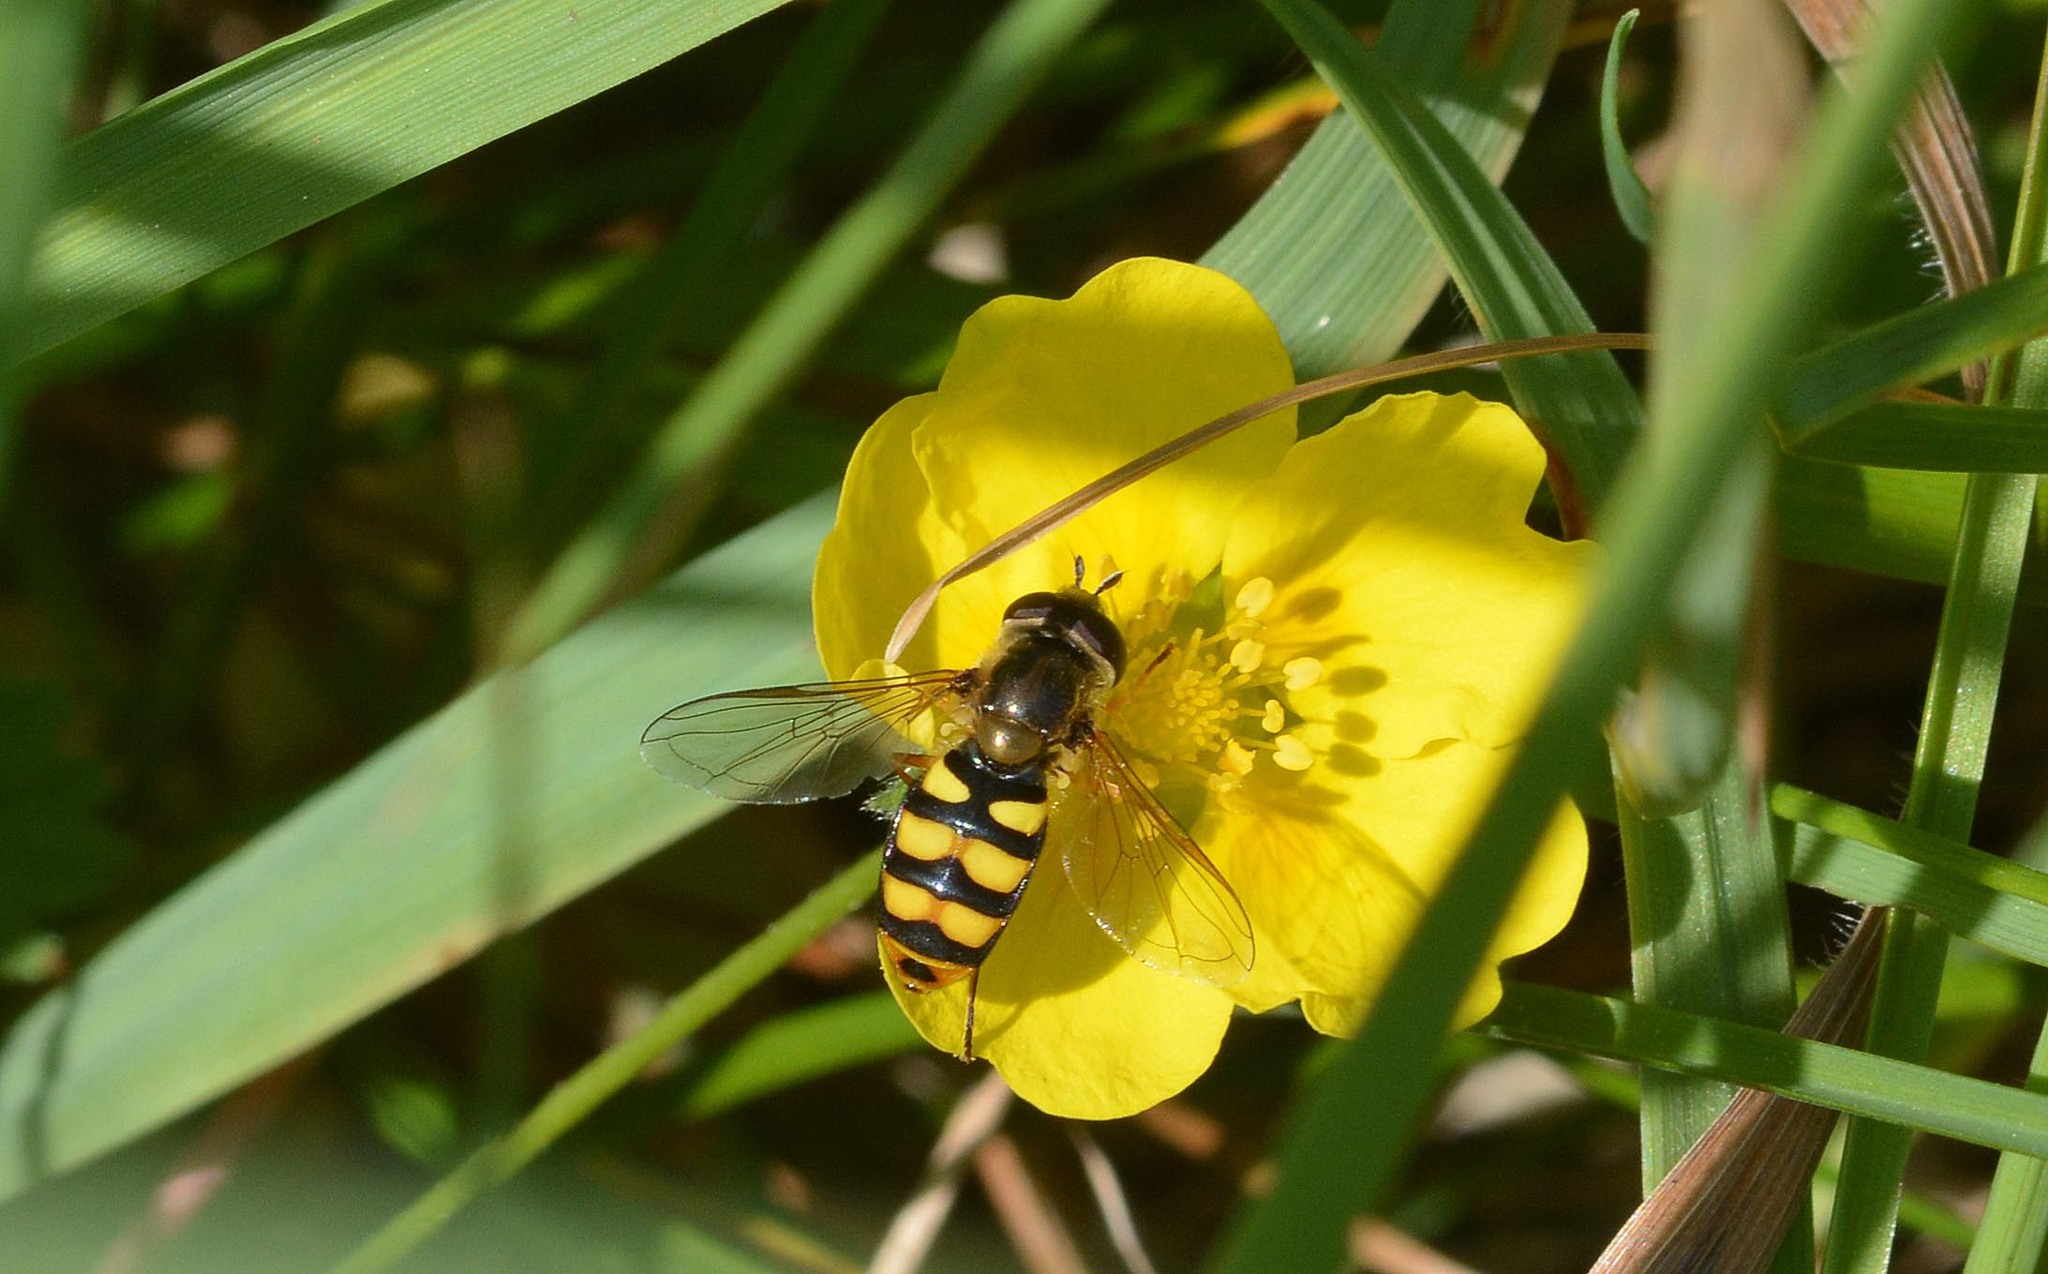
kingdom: Animalia
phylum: Arthropoda
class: Insecta
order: Diptera
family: Syrphidae
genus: Eupeodes
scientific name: Eupeodes latifasciatus
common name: Variable aphideater
